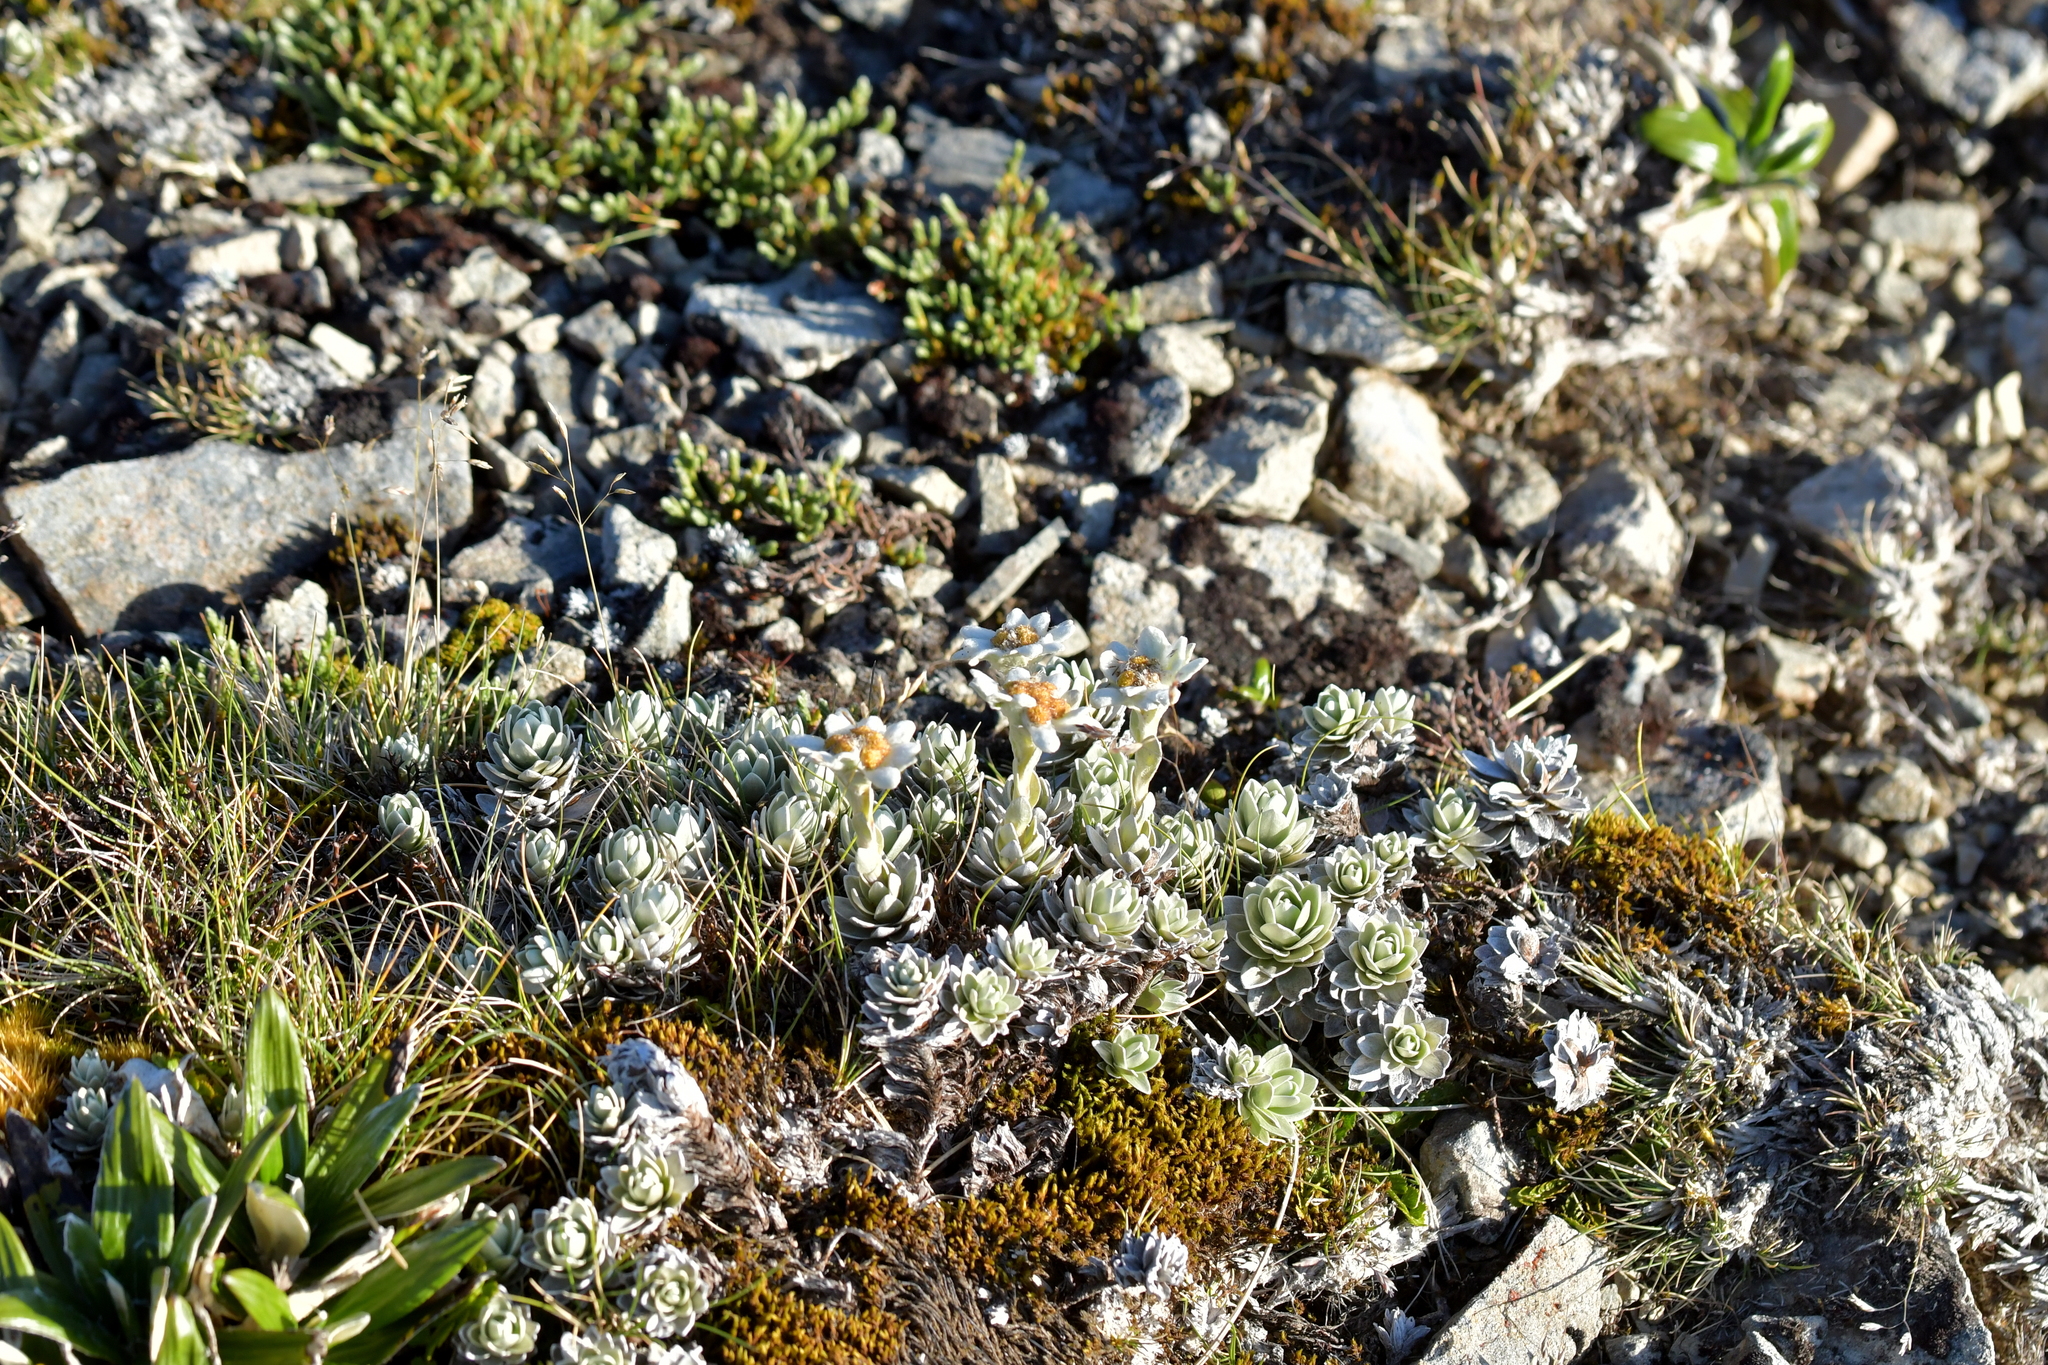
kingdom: Plantae
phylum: Tracheophyta
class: Magnoliopsida
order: Asterales
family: Asteraceae
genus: Leucogenes
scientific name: Leucogenes leontopodium
